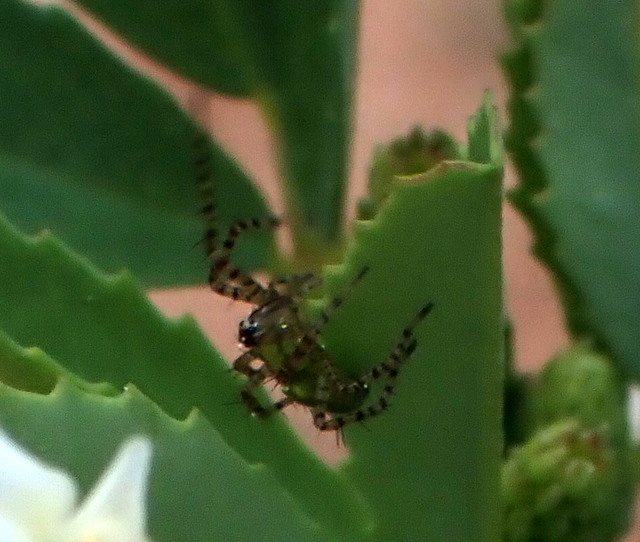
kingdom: Animalia
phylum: Arthropoda
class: Arachnida
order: Araneae
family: Oxyopidae
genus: Peucetia
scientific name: Peucetia viridans
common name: Lynx spiders
